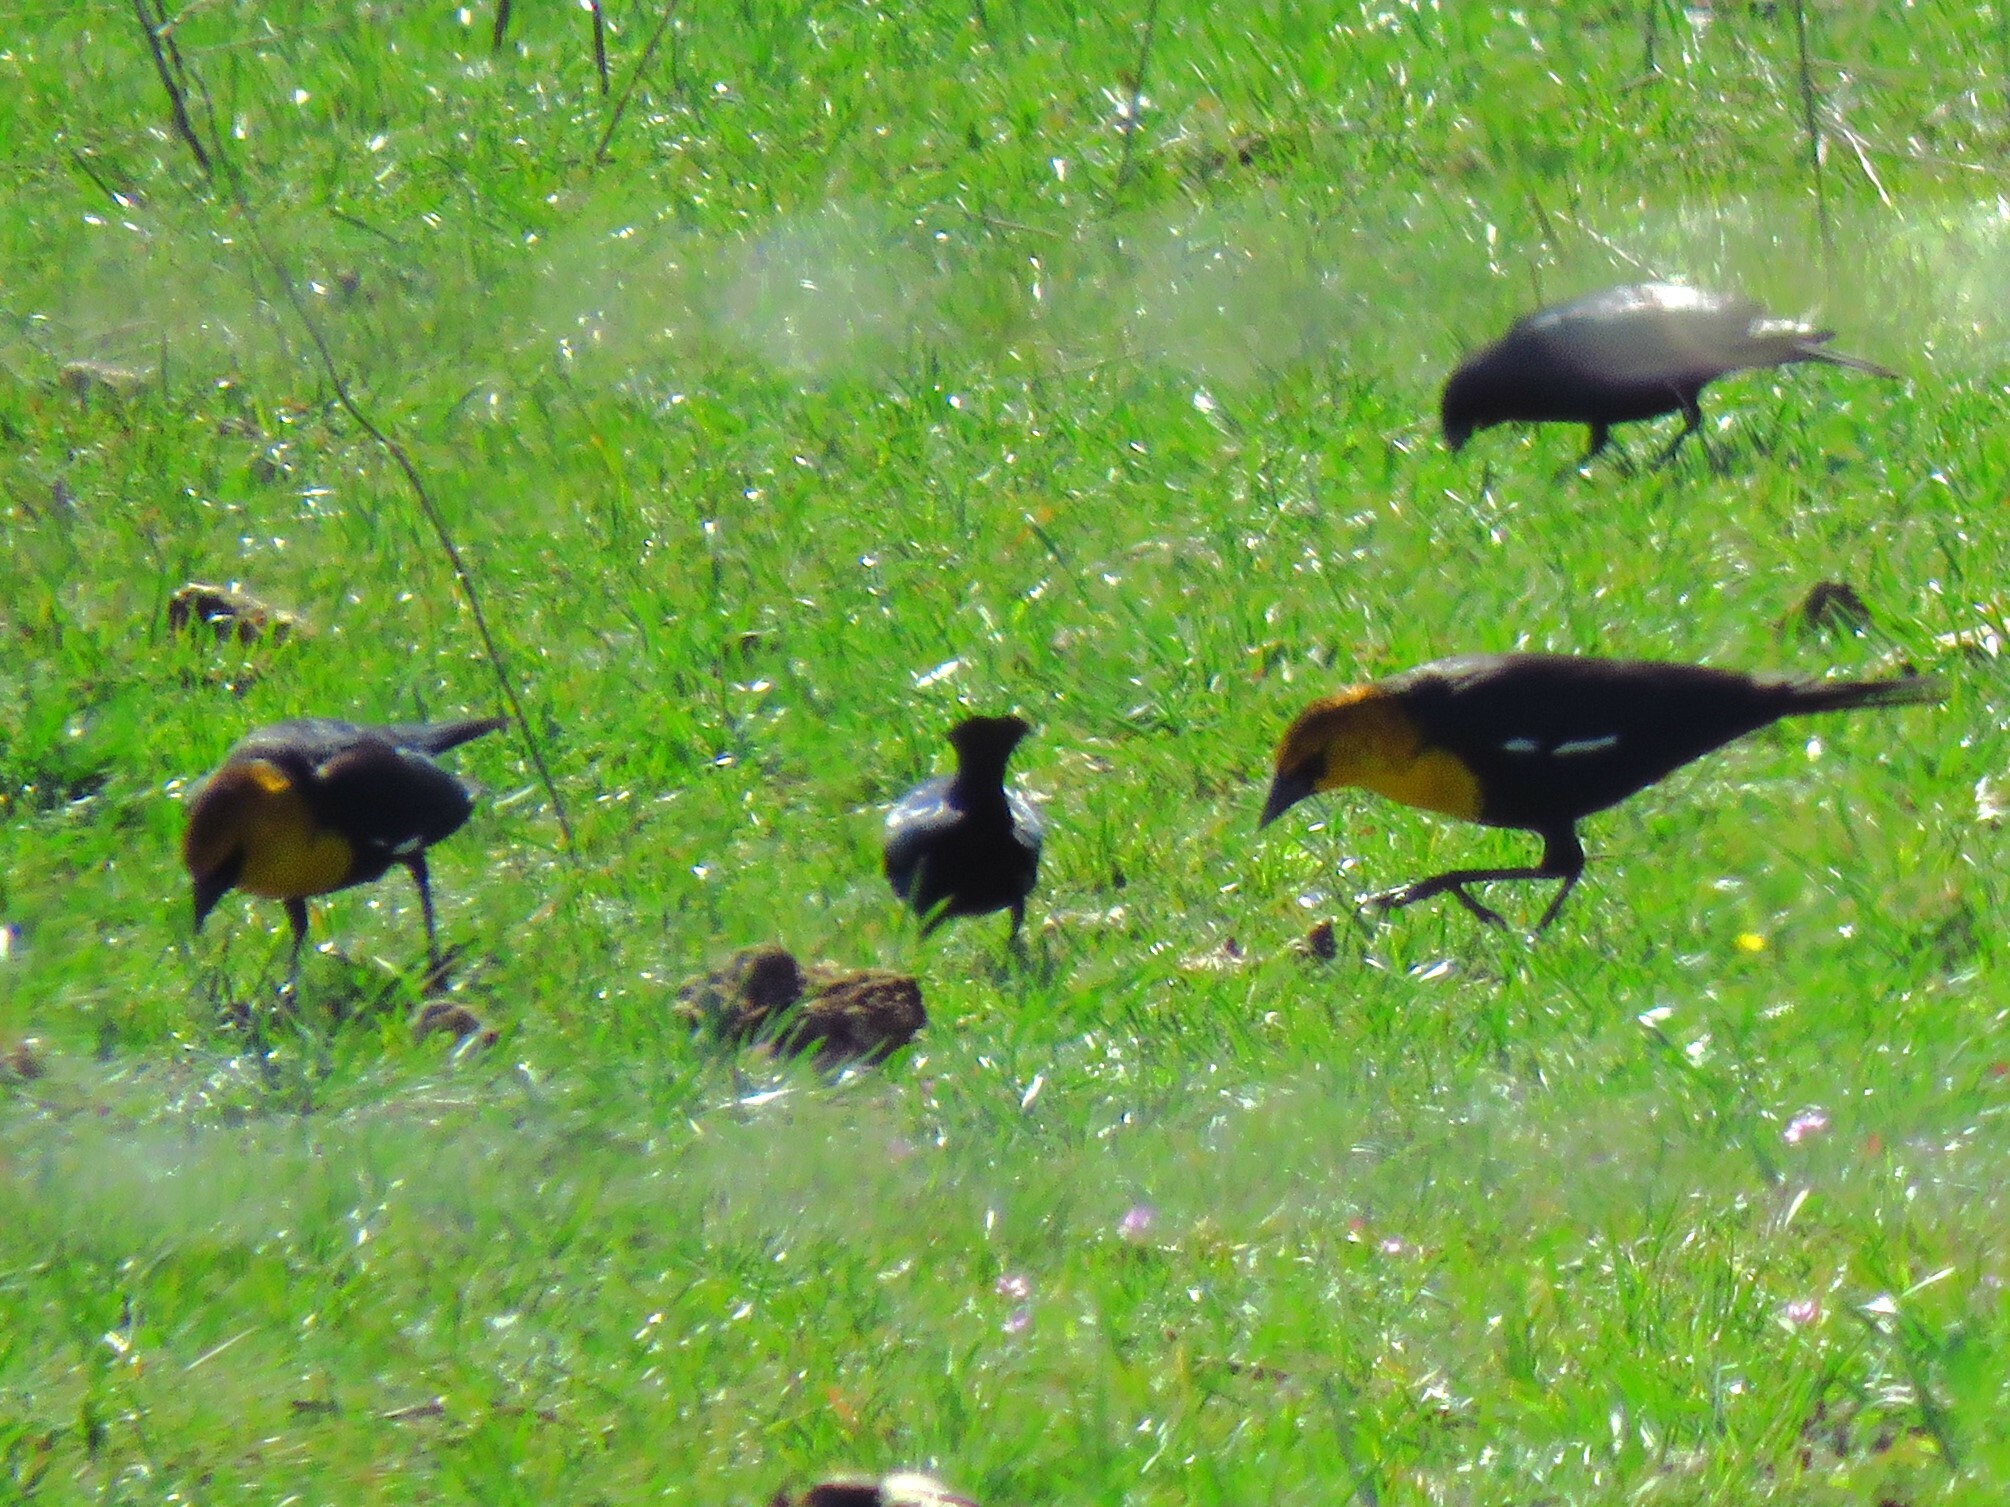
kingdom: Animalia
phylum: Chordata
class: Aves
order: Passeriformes
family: Icteridae
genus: Xanthocephalus
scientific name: Xanthocephalus xanthocephalus
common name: Yellow-headed blackbird
